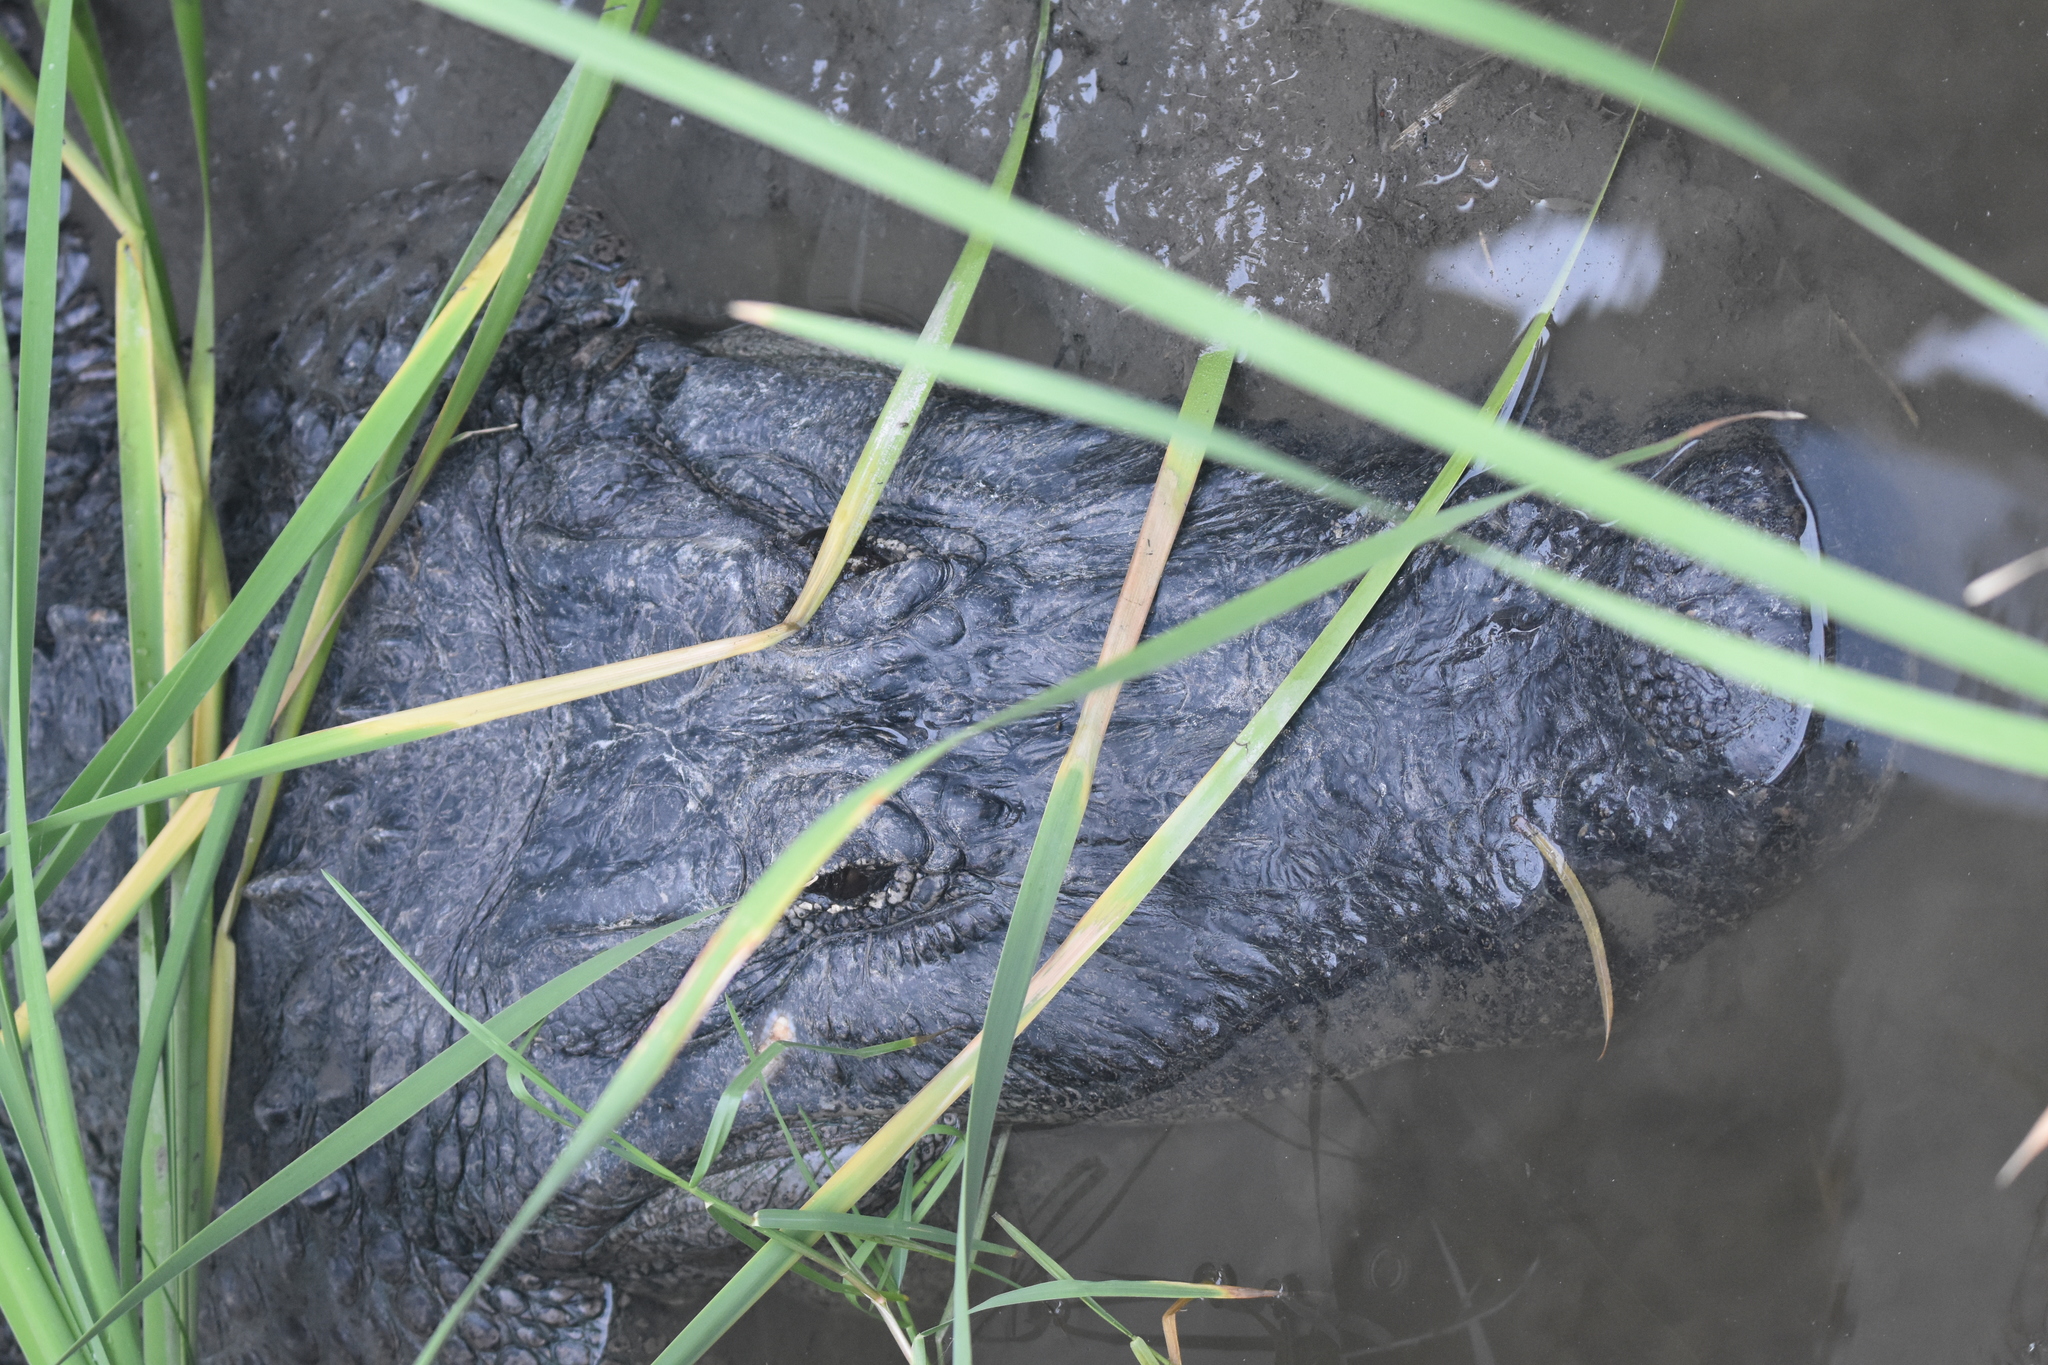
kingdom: Animalia
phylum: Chordata
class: Crocodylia
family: Alligatoridae
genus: Alligator
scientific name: Alligator mississippiensis
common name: American alligator
